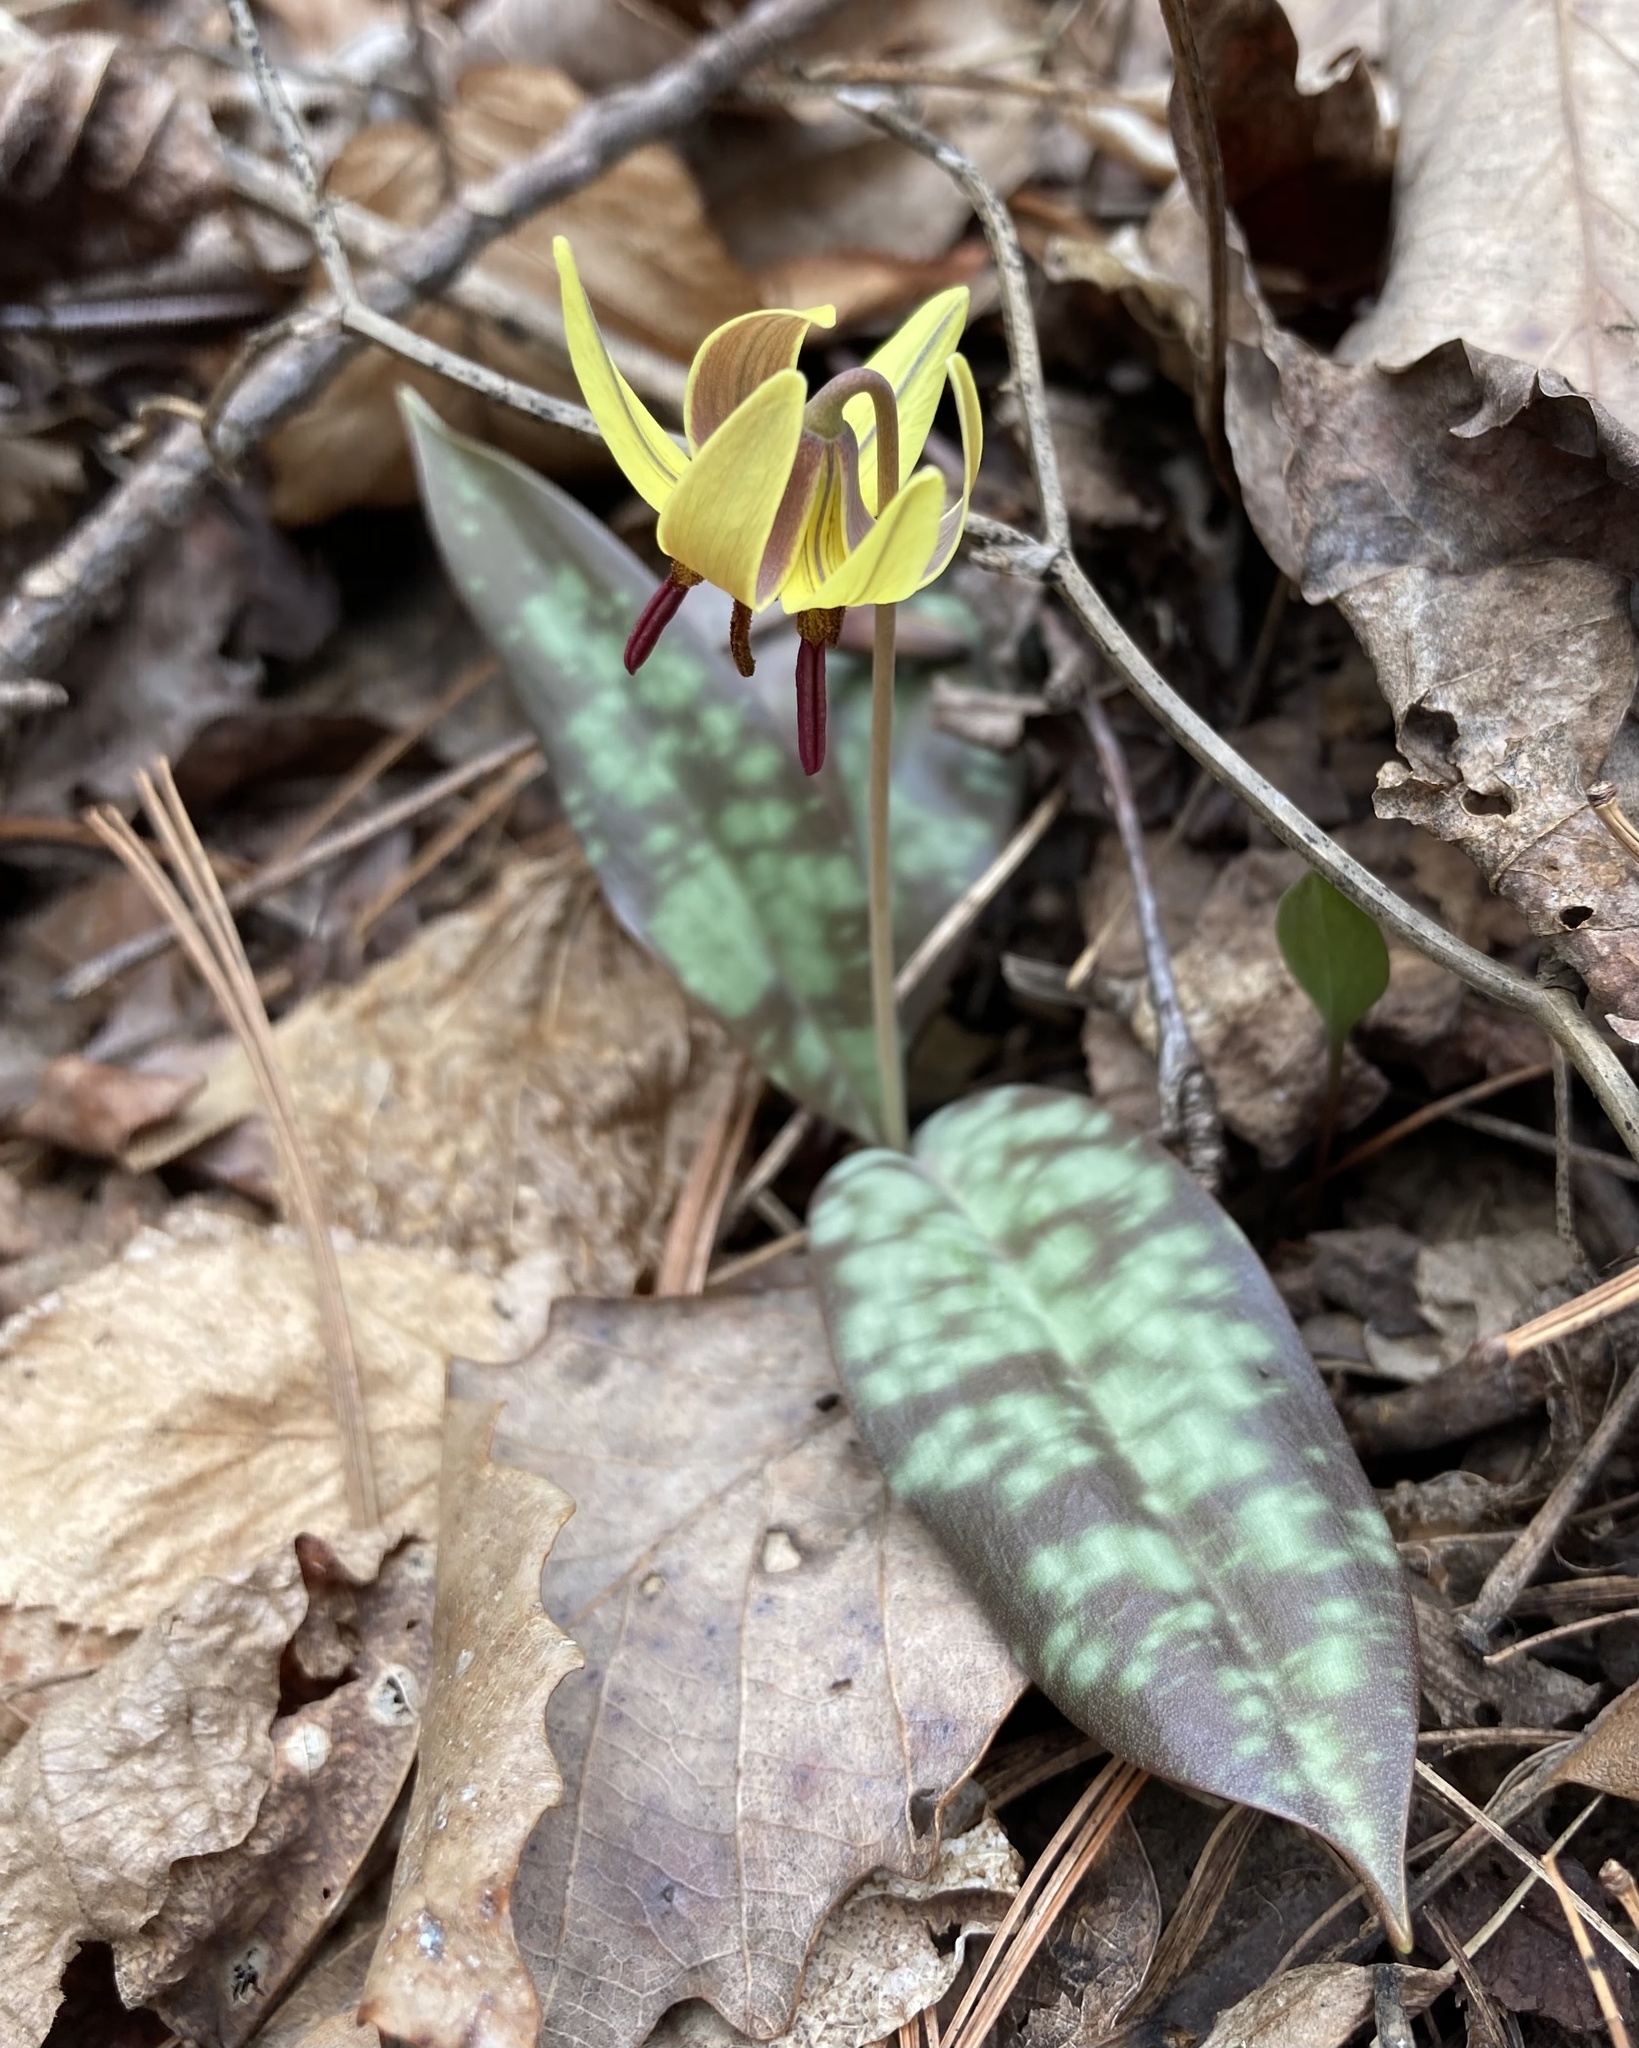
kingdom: Plantae
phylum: Tracheophyta
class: Liliopsida
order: Liliales
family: Liliaceae
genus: Erythronium
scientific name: Erythronium umbilicatum
